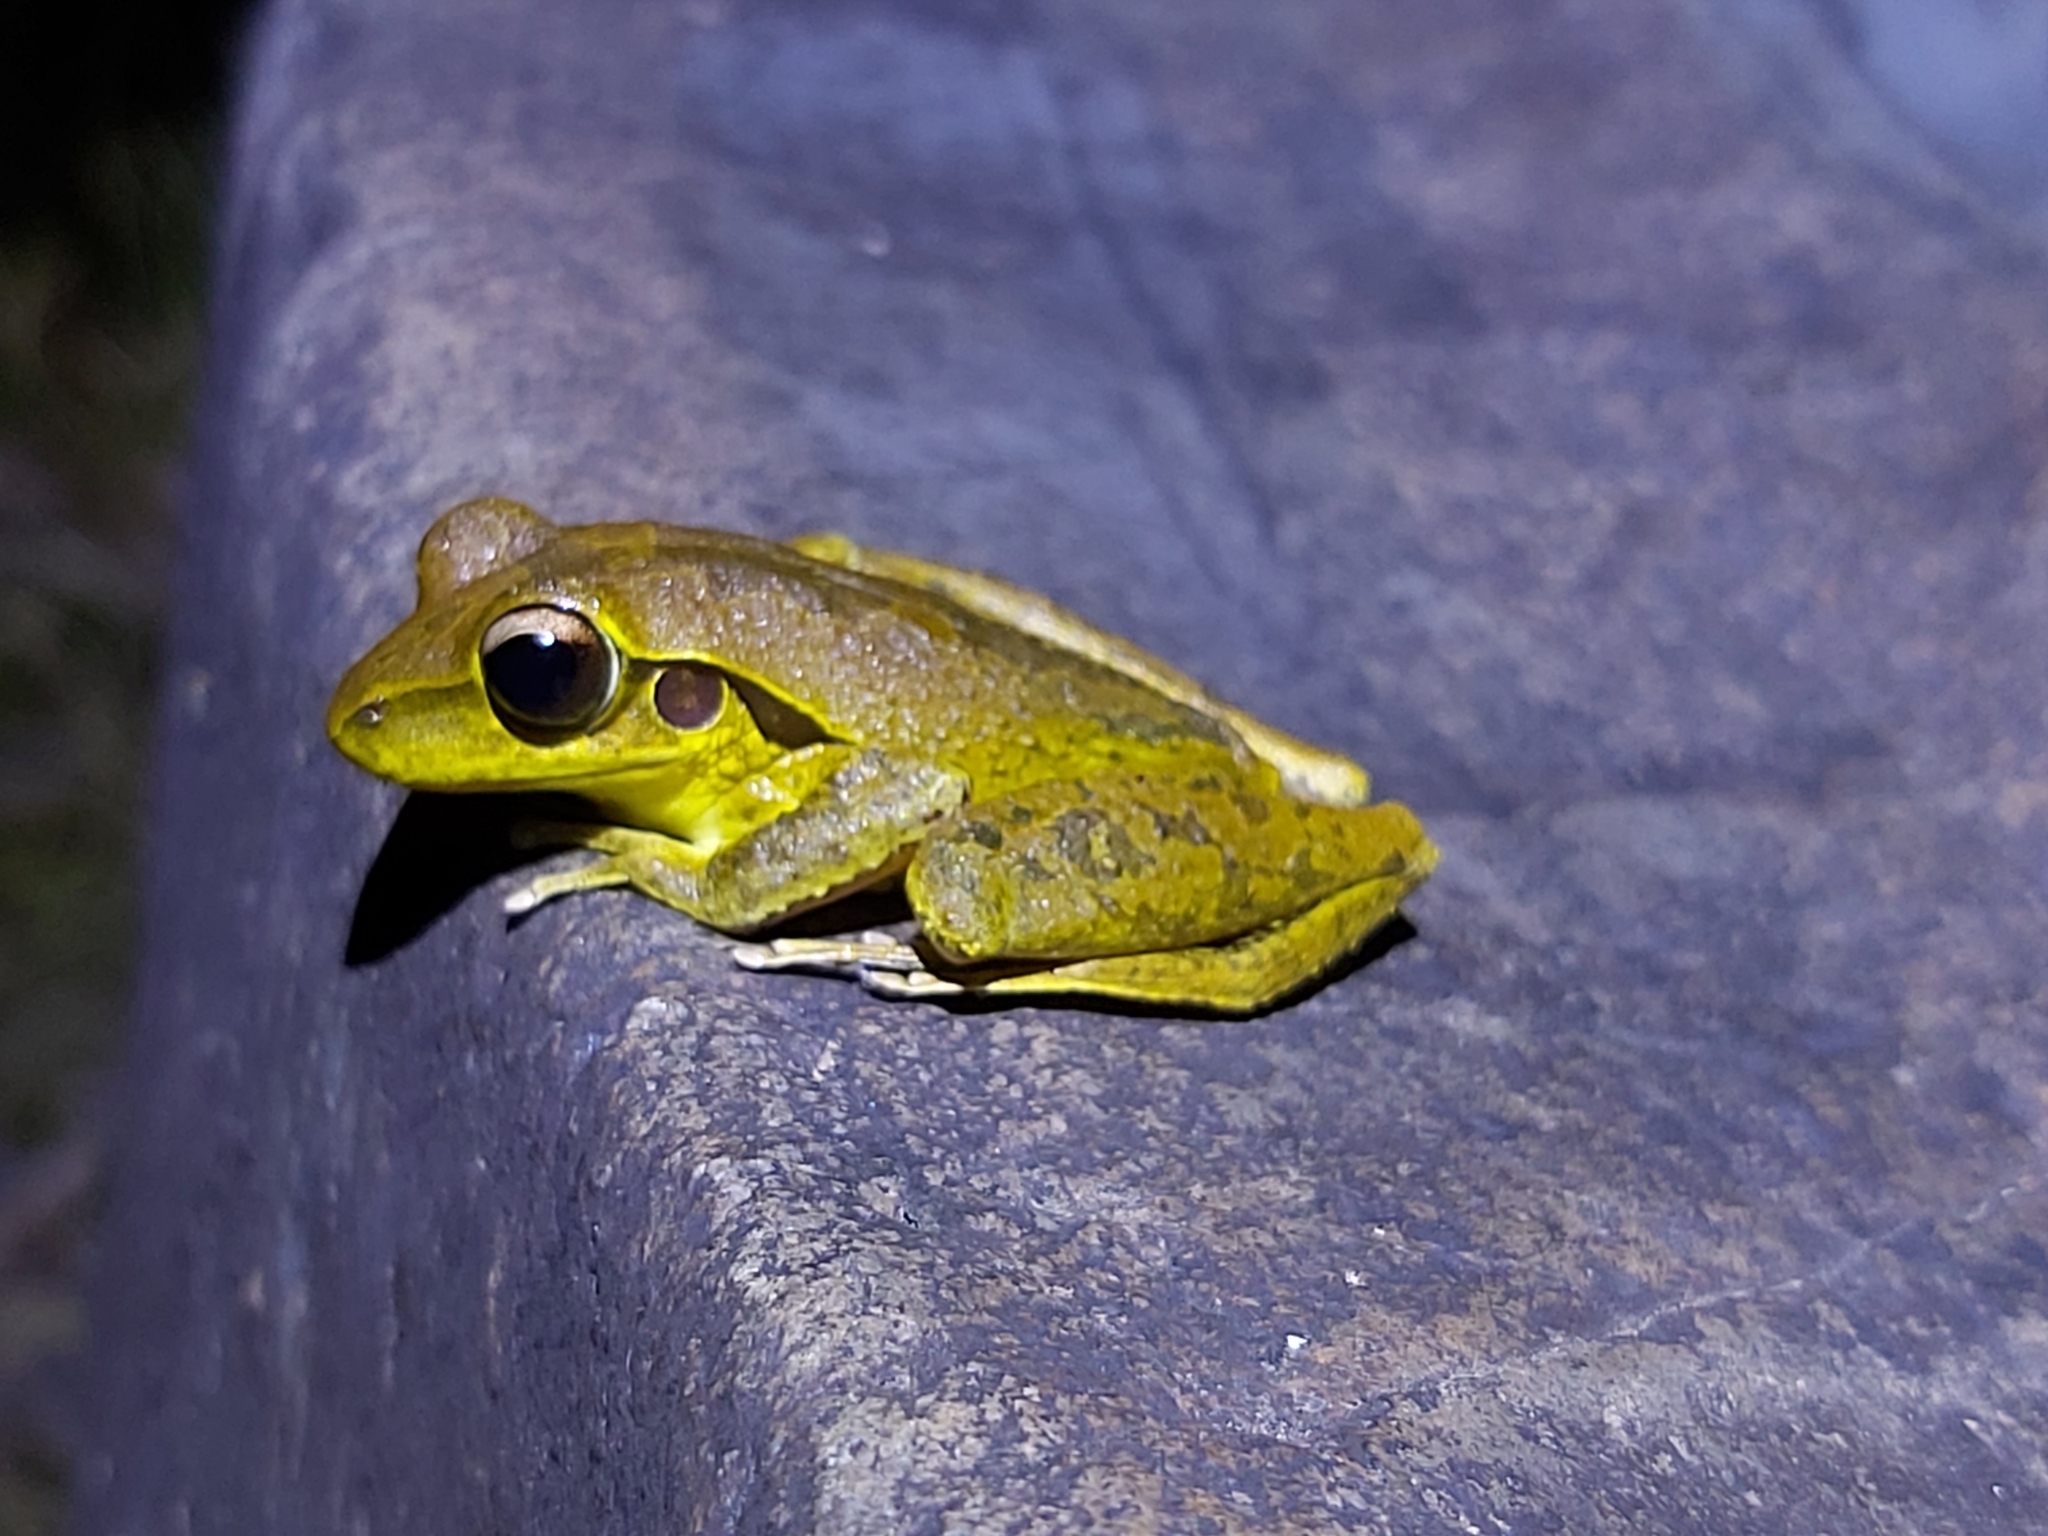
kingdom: Animalia
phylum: Chordata
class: Amphibia
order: Anura
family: Hylidae
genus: Ranoidea
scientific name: Ranoidea
